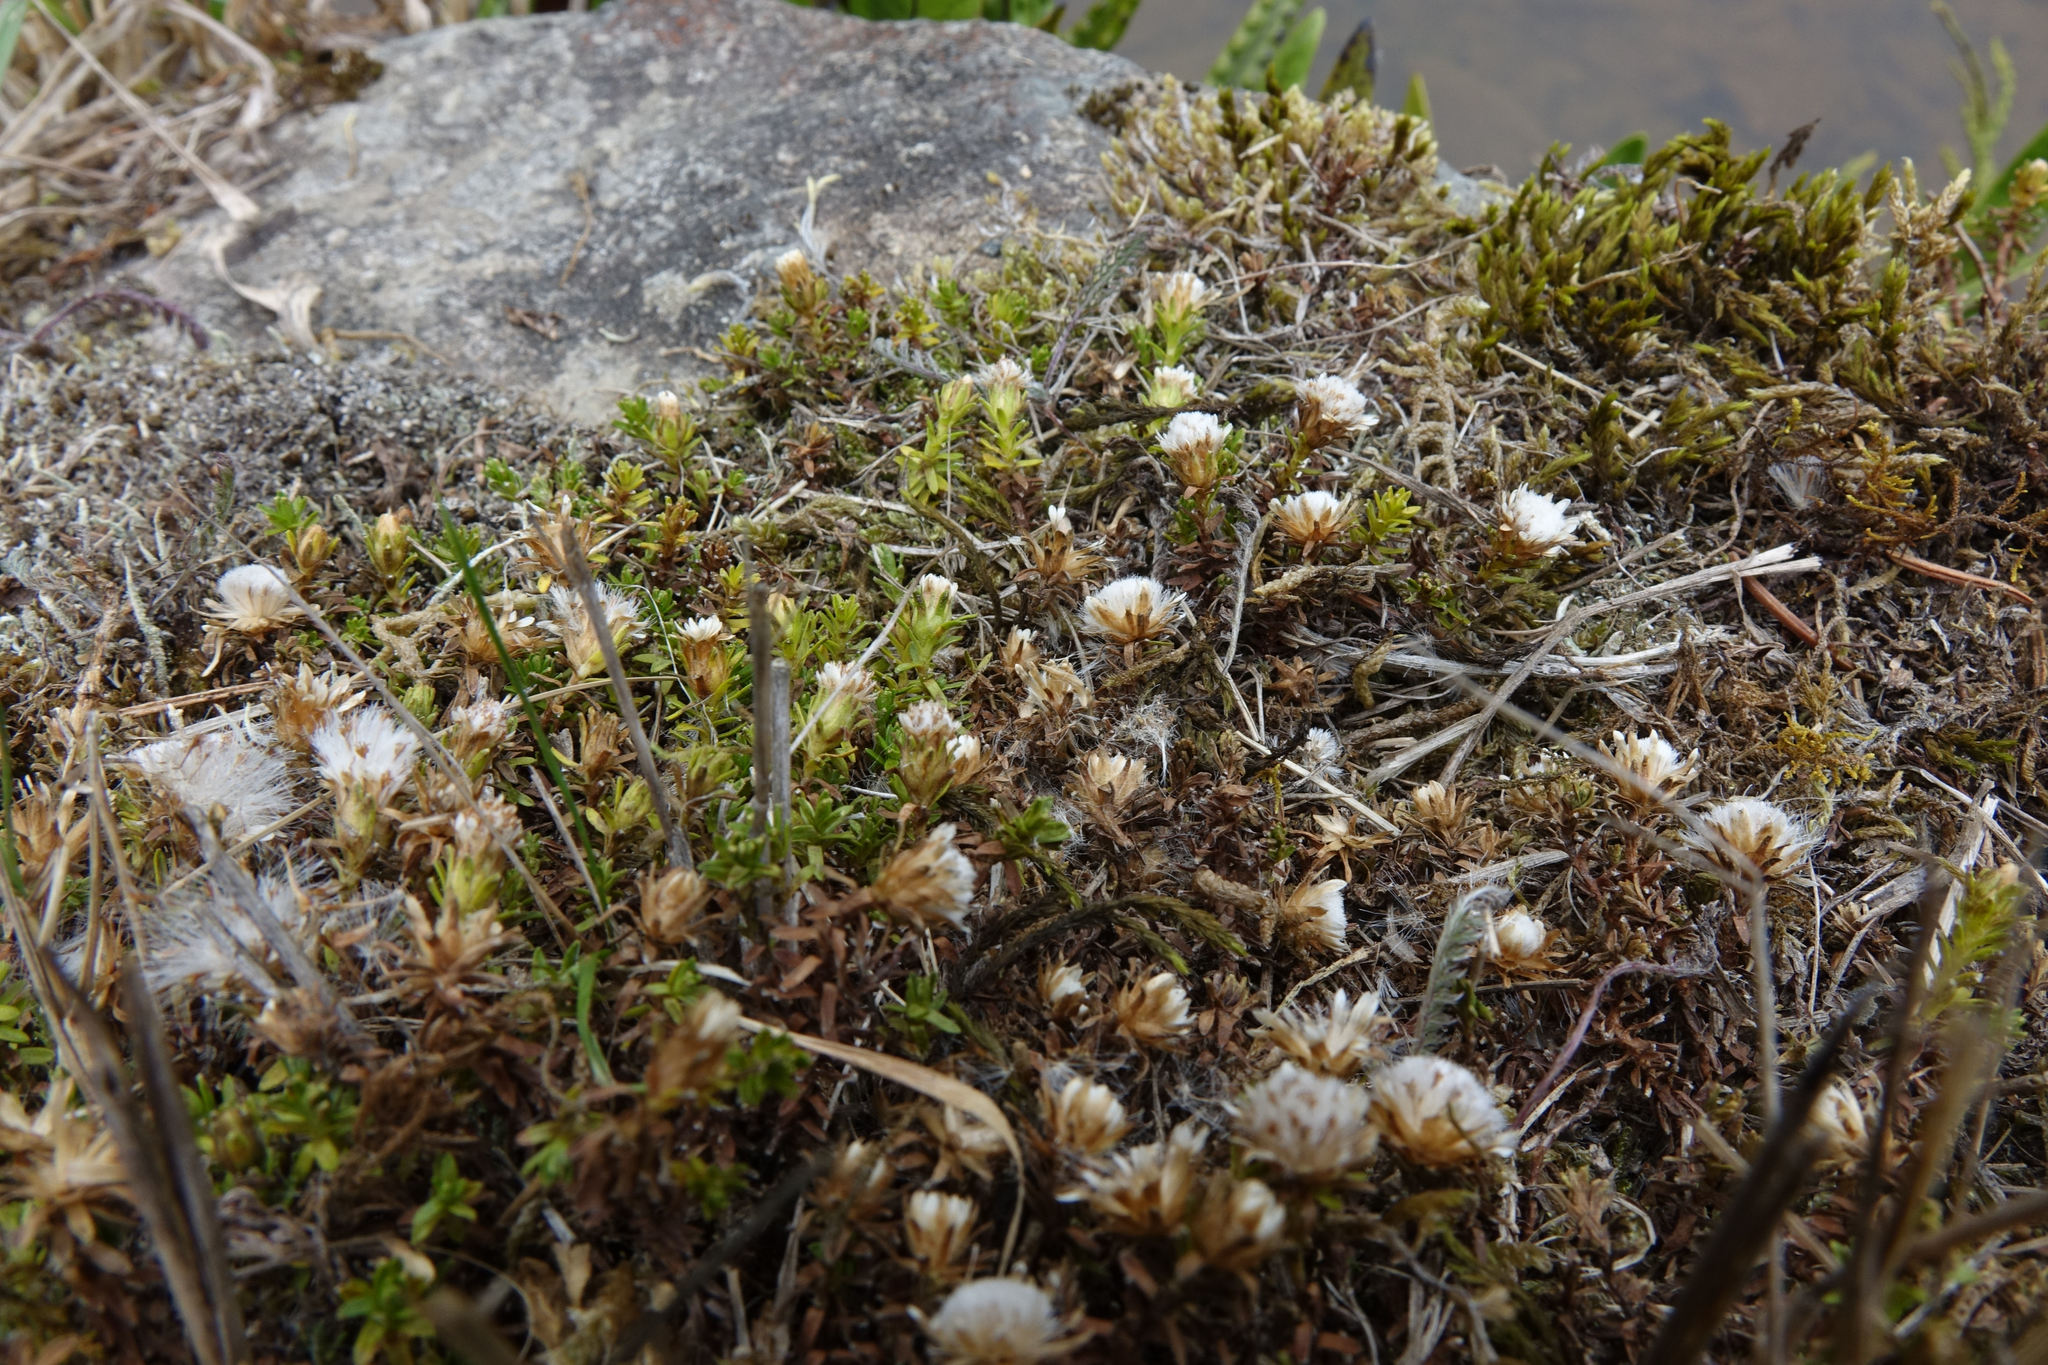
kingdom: Plantae
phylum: Tracheophyta
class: Magnoliopsida
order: Asterales
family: Asteraceae
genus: Raoulia
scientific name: Raoulia glabra
